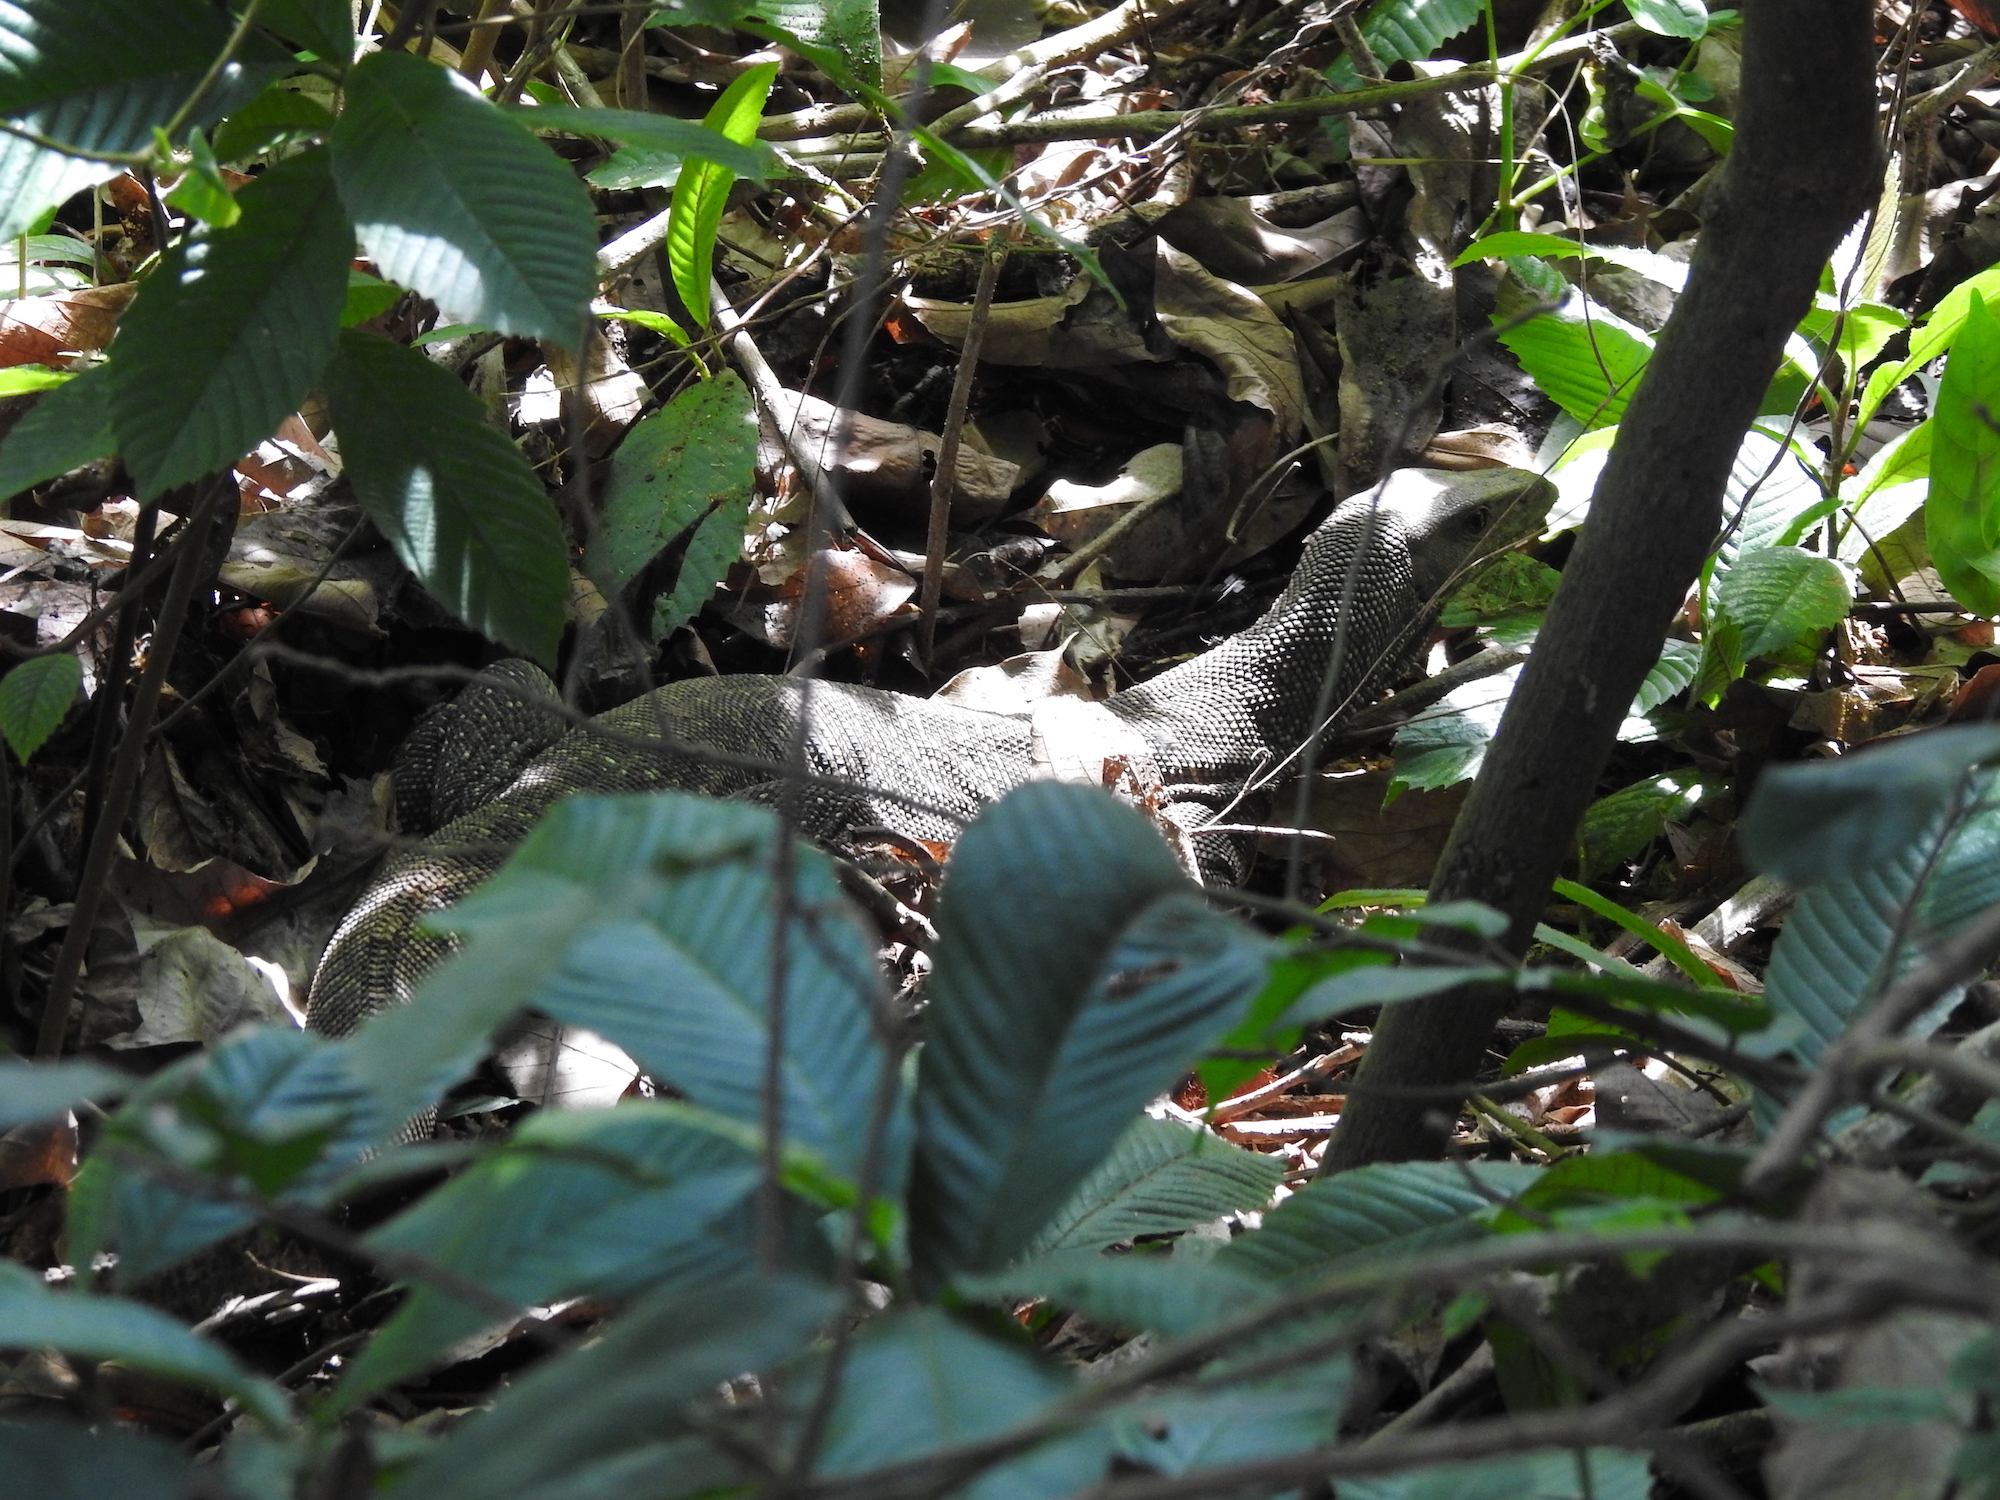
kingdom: Animalia
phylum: Chordata
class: Squamata
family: Varanidae
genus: Varanus
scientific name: Varanus nebulosus
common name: Clouded monitor
